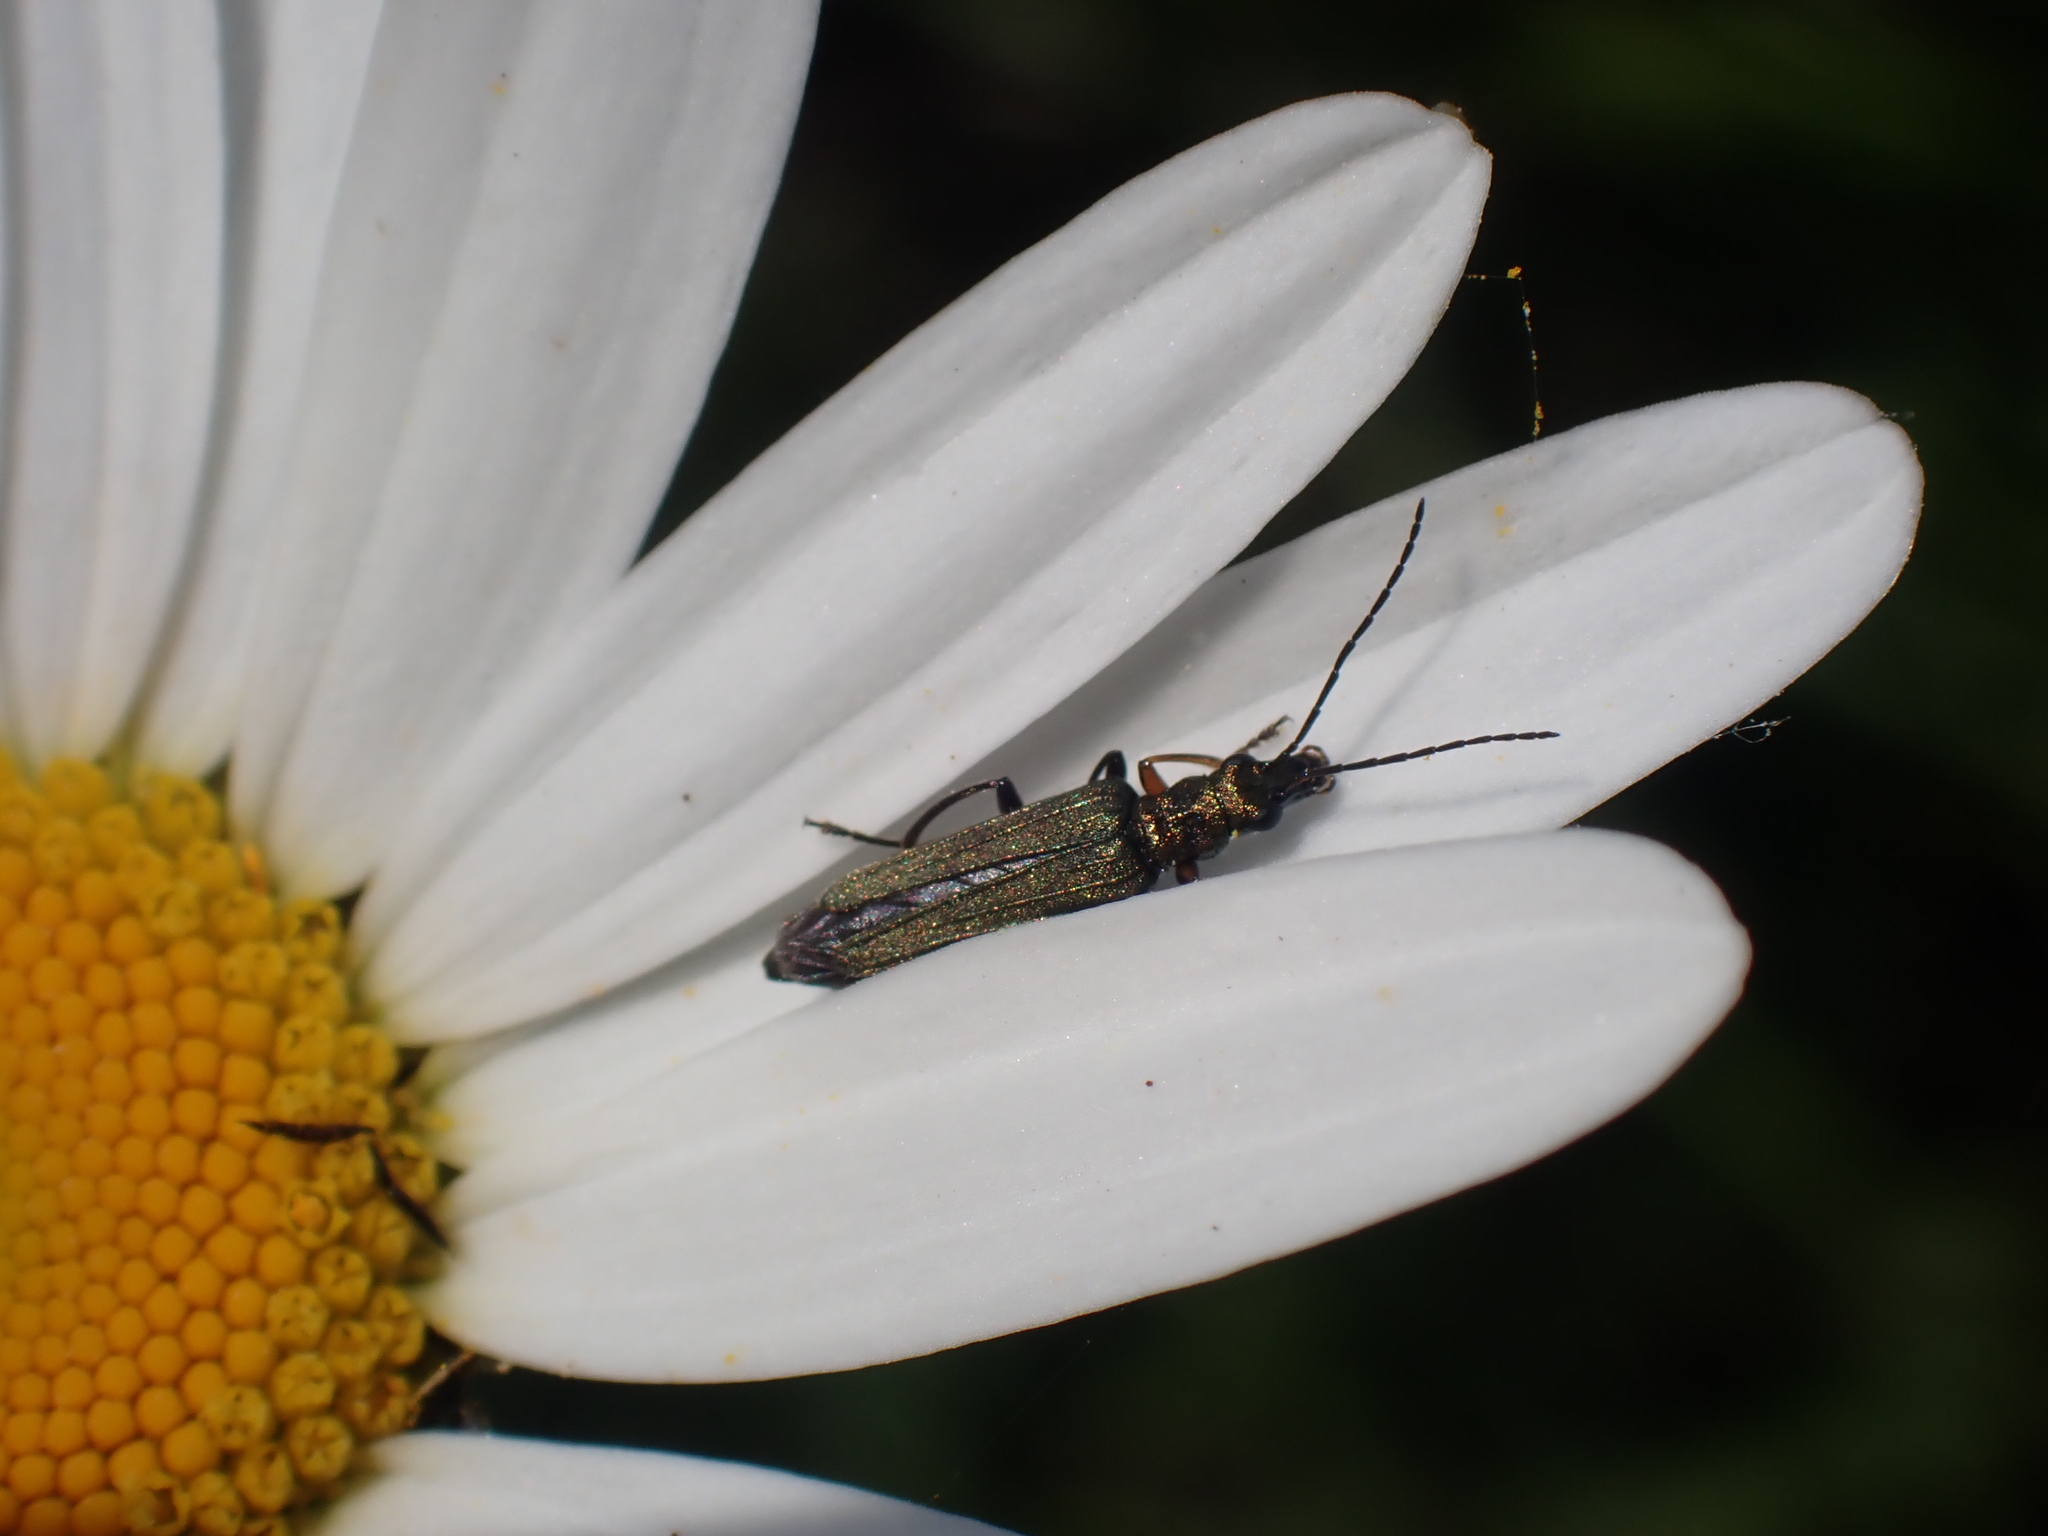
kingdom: Animalia
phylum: Arthropoda
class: Insecta
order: Coleoptera
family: Oedemeridae
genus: Oedemera
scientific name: Oedemera flavipes
